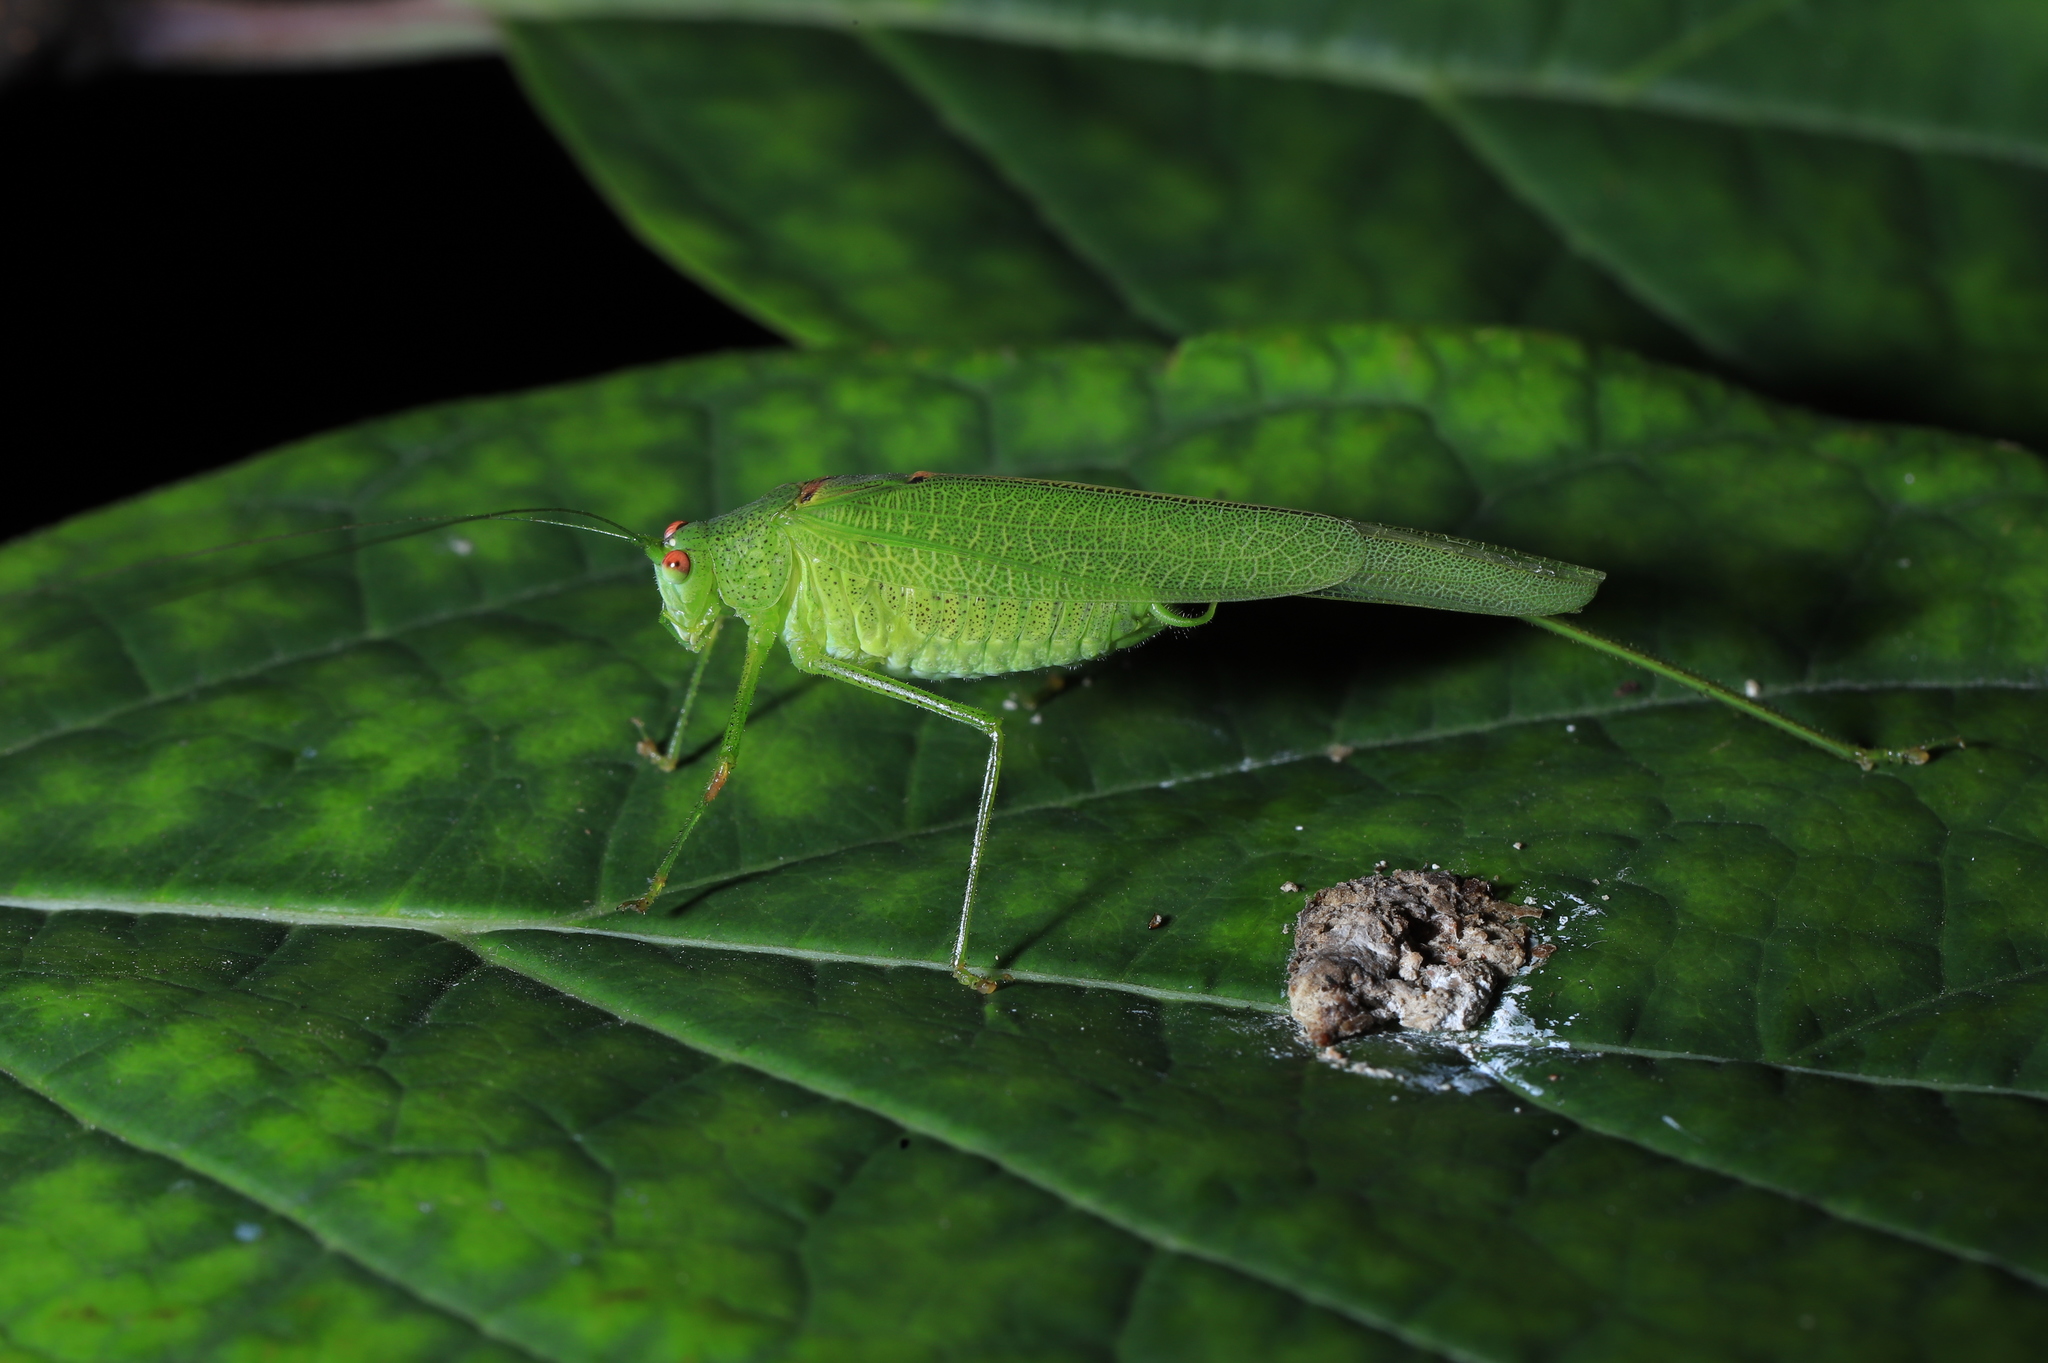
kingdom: Animalia
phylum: Arthropoda
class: Insecta
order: Orthoptera
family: Tettigoniidae
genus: Phaneroptera
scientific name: Phaneroptera nana
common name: Southern sickle bush-cricket
